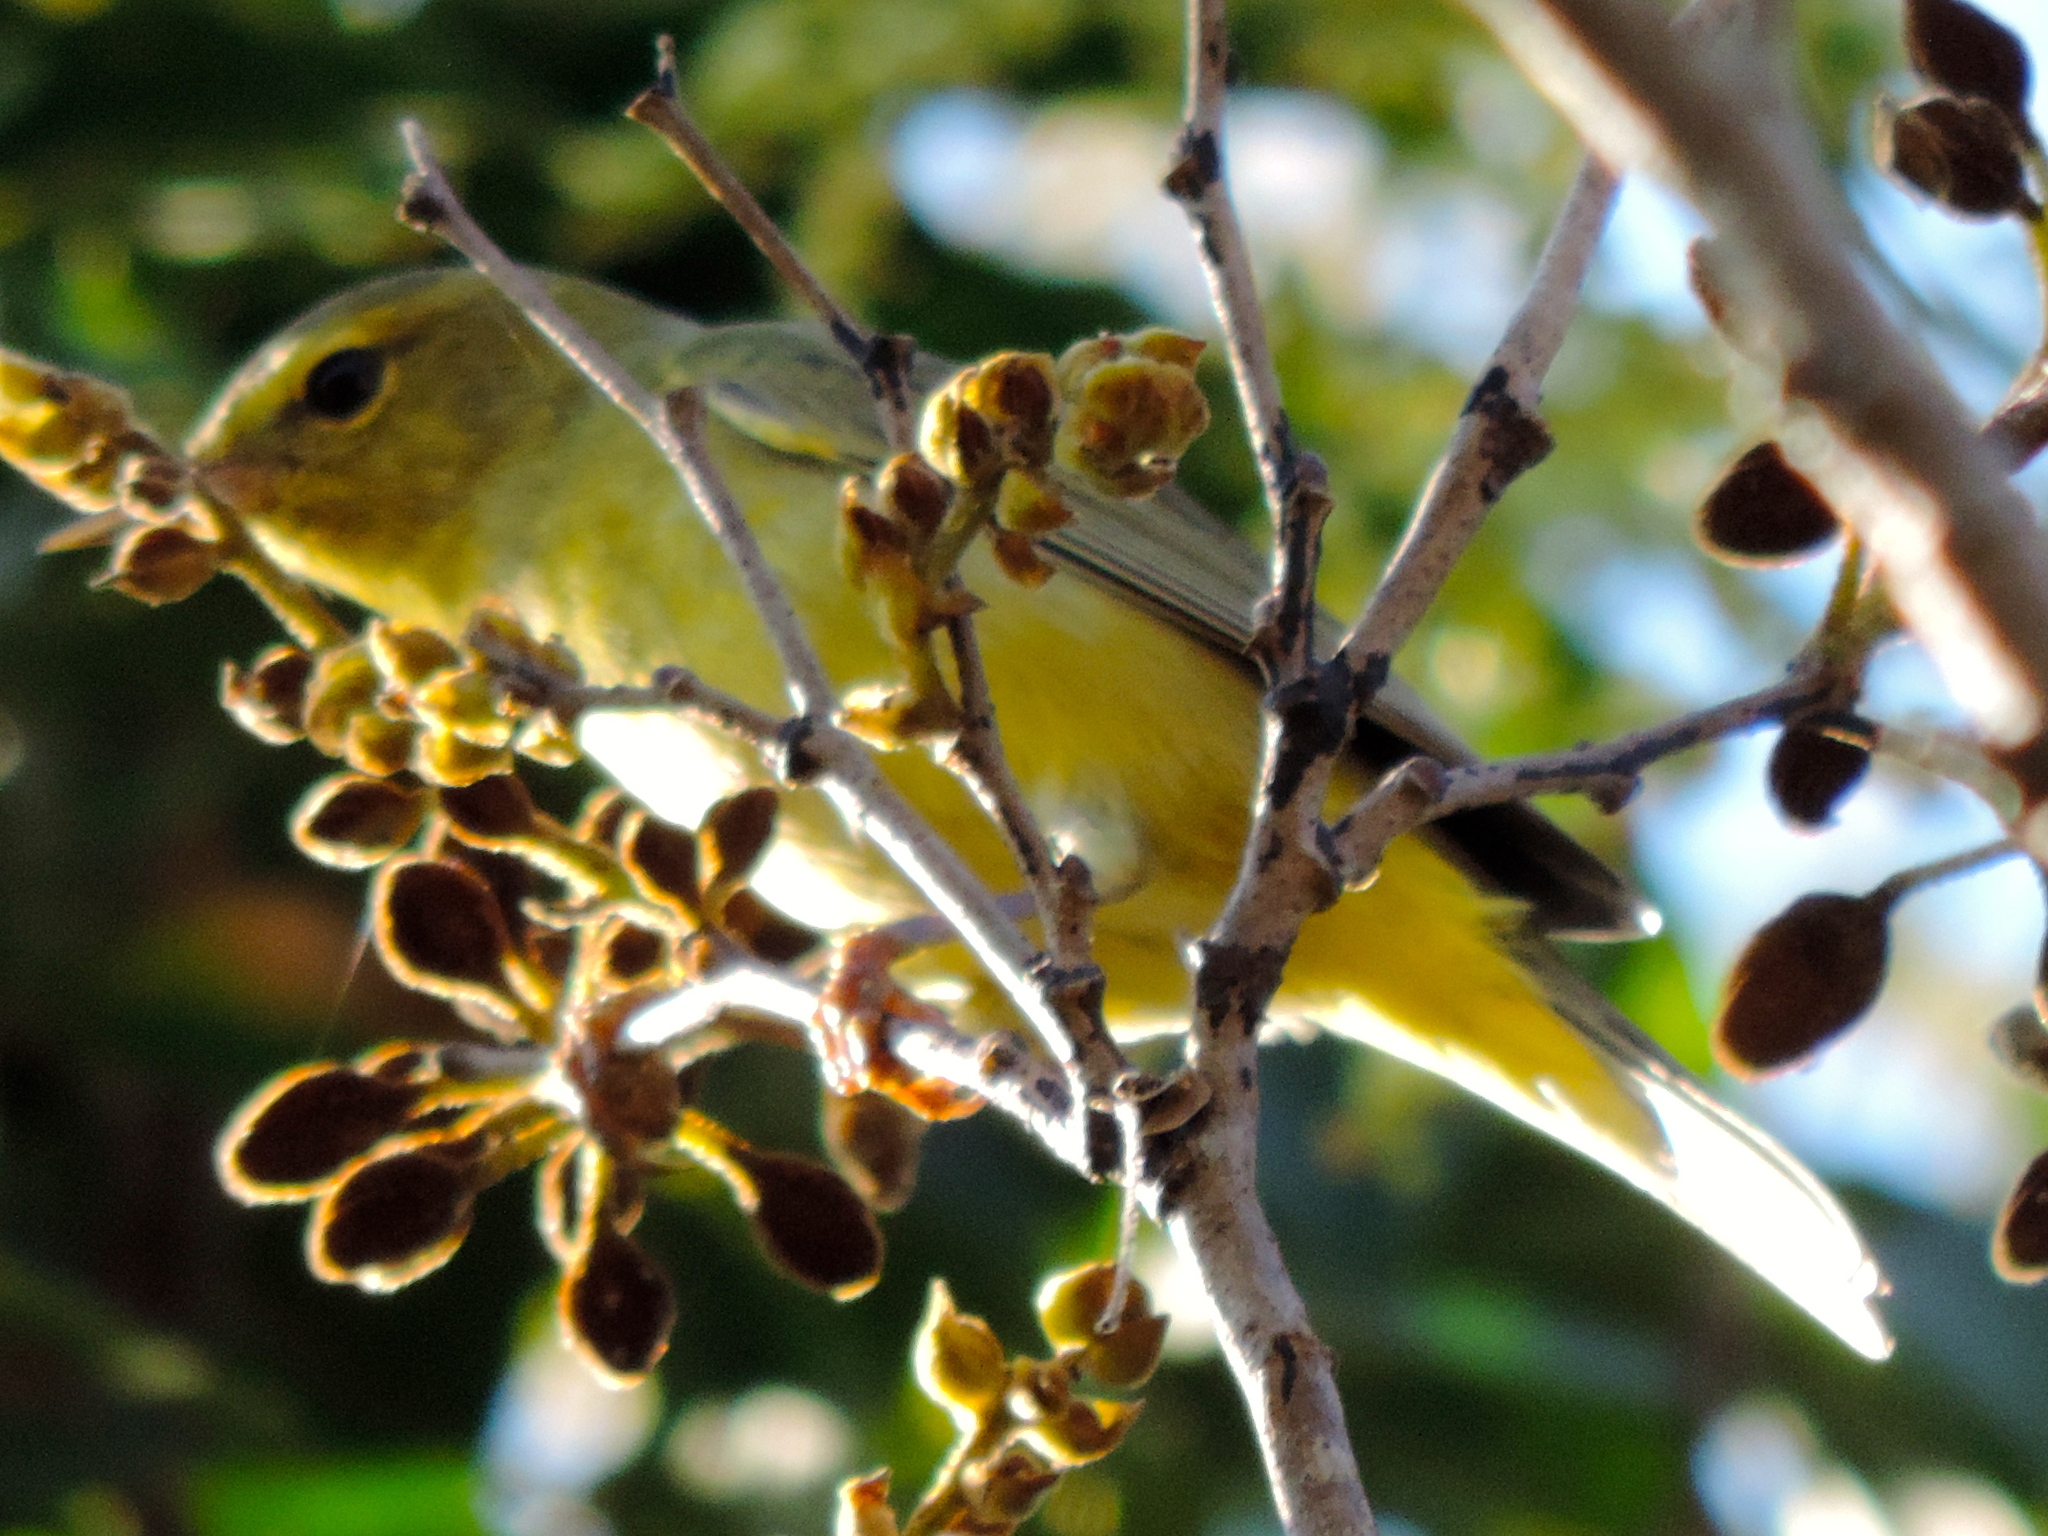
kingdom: Animalia
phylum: Chordata
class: Aves
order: Passeriformes
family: Parulidae
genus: Leiothlypis
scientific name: Leiothlypis celata
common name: Orange-crowned warbler
